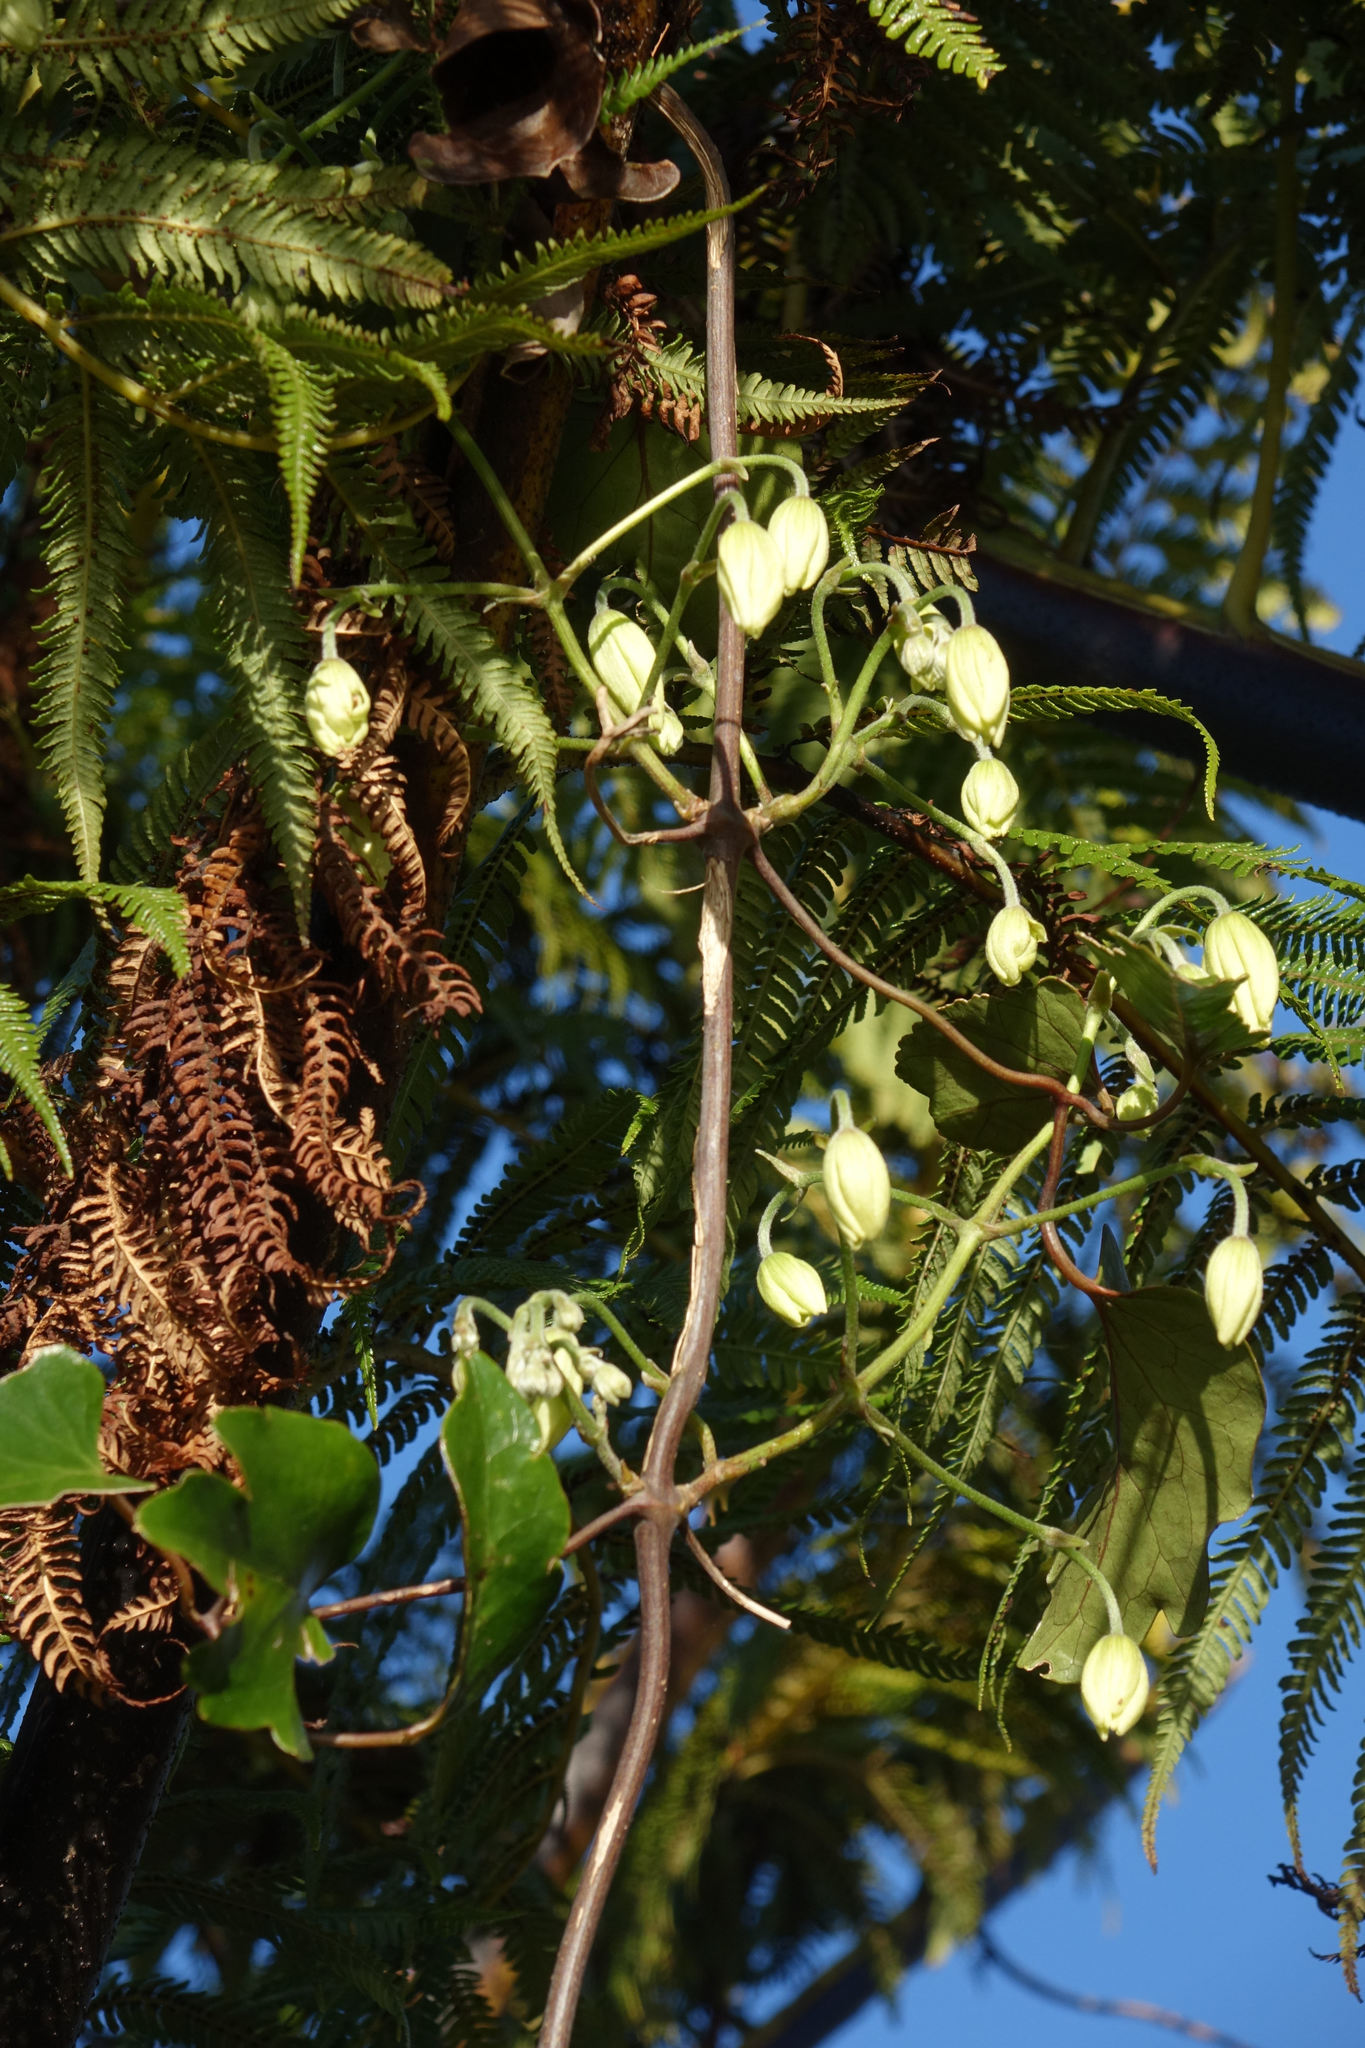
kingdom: Plantae
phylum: Tracheophyta
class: Magnoliopsida
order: Ranunculales
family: Ranunculaceae
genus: Clematis
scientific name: Clematis paniculata
